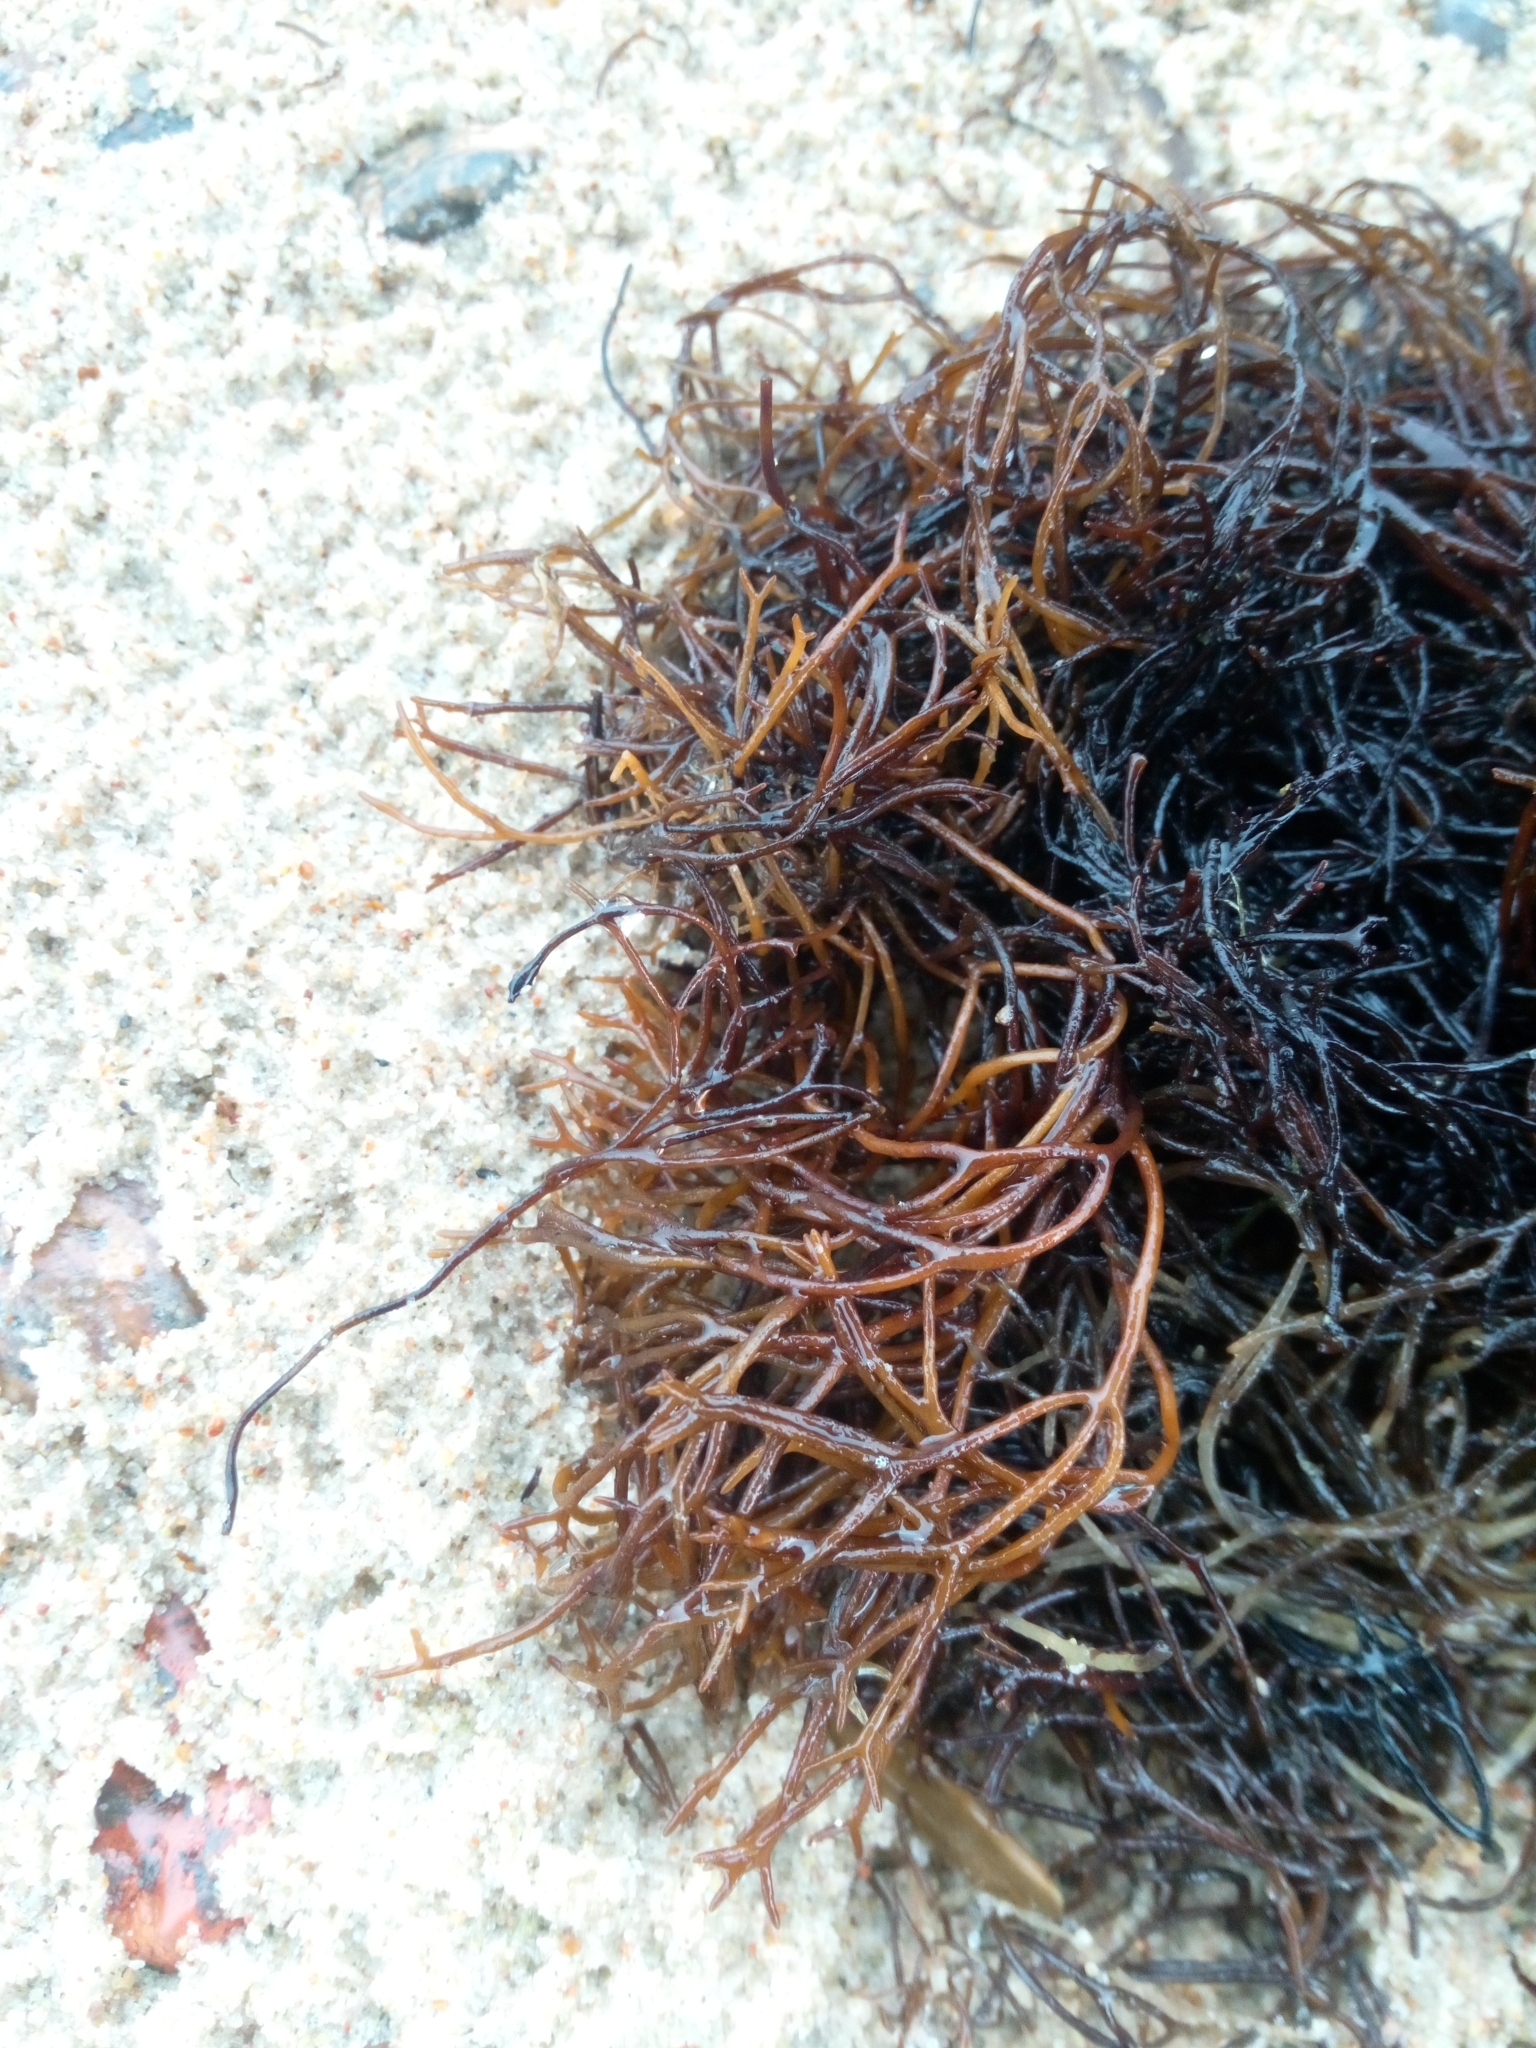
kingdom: Plantae
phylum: Rhodophyta
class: Florideophyceae
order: Gigartinales
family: Furcellariaceae
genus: Furcellaria
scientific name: Furcellaria lumbricalis
